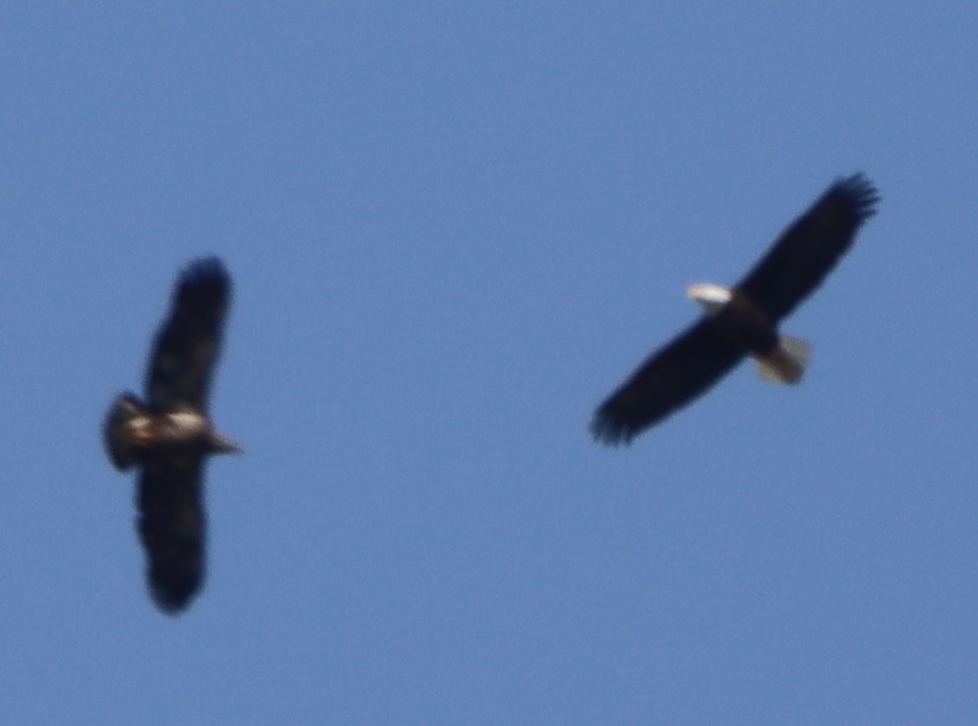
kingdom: Animalia
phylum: Chordata
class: Aves
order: Accipitriformes
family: Accipitridae
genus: Haliaeetus
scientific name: Haliaeetus leucocephalus
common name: Bald eagle
